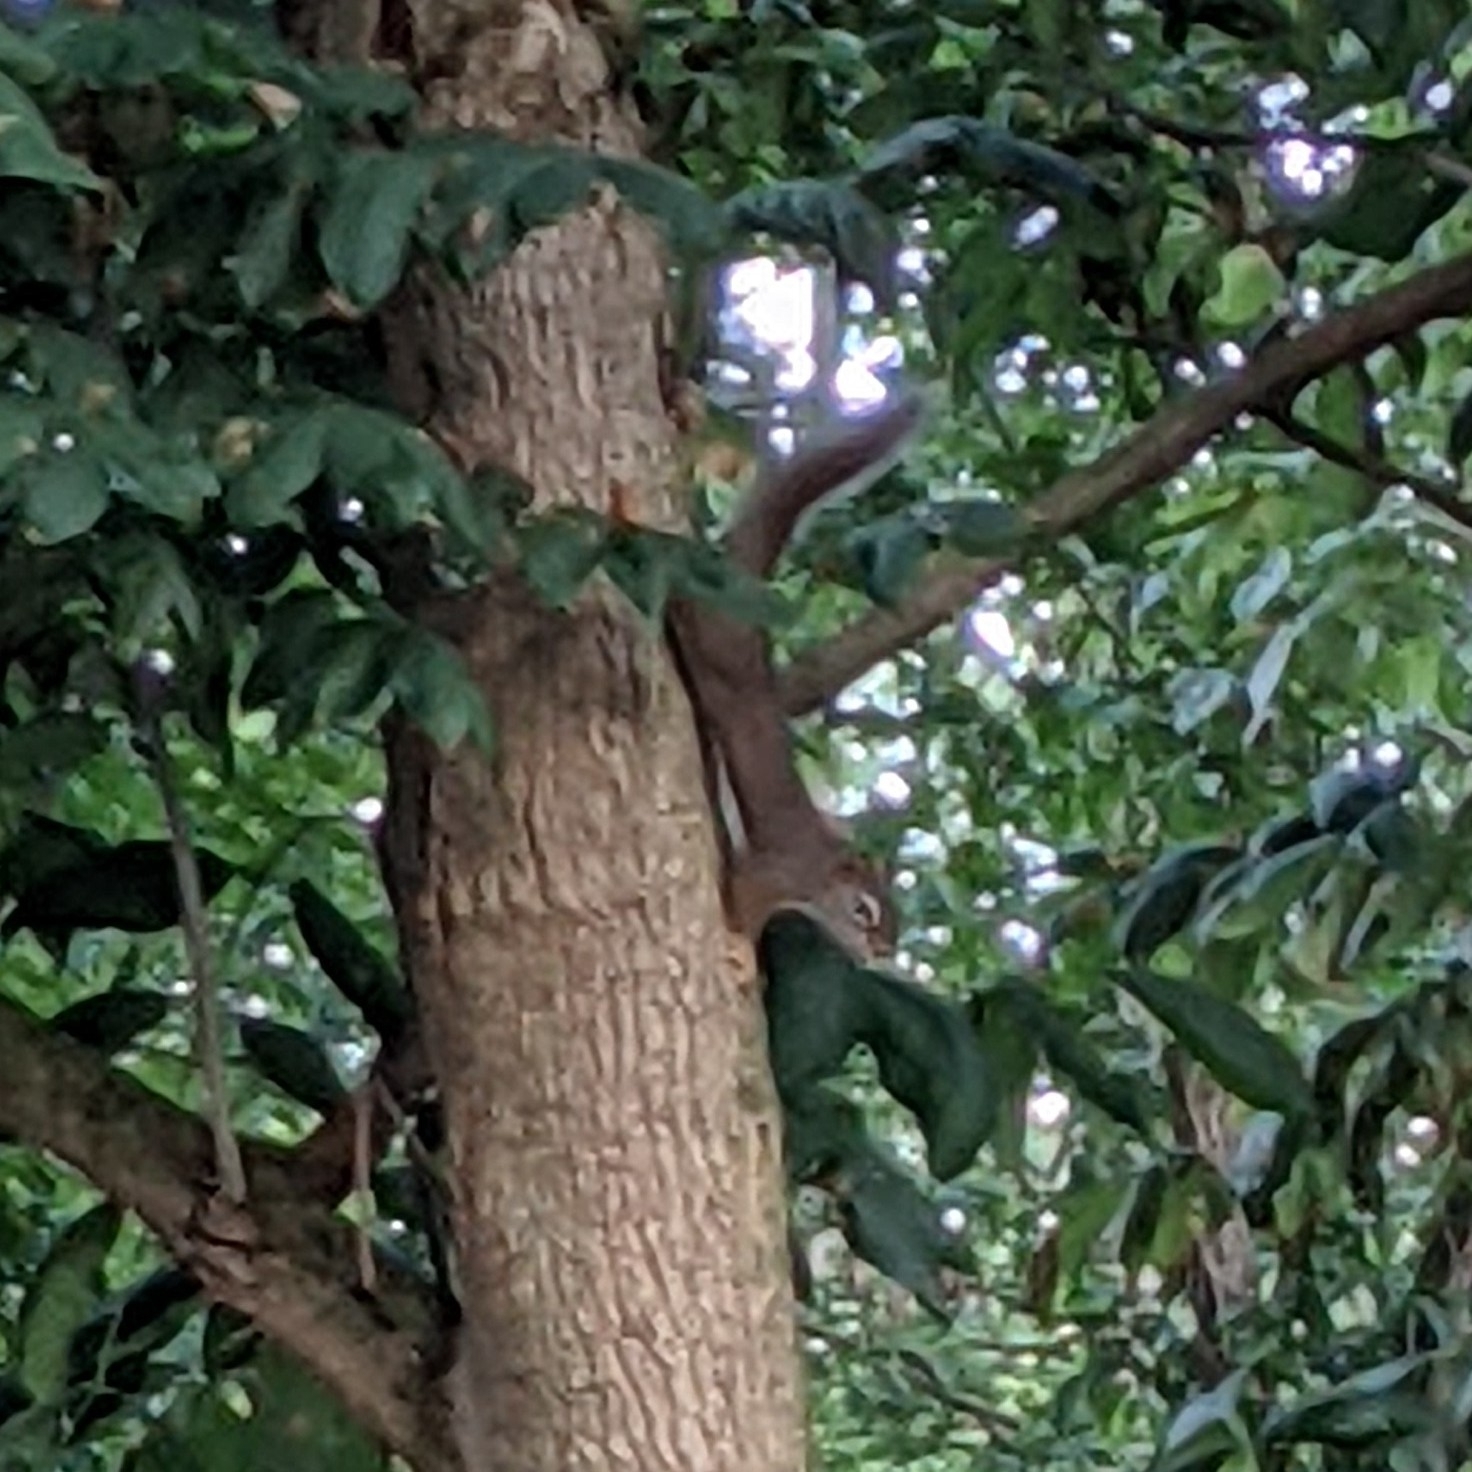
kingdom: Animalia
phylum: Chordata
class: Mammalia
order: Rodentia
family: Sciuridae
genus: Tamiasciurus
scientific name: Tamiasciurus hudsonicus
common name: Red squirrel
